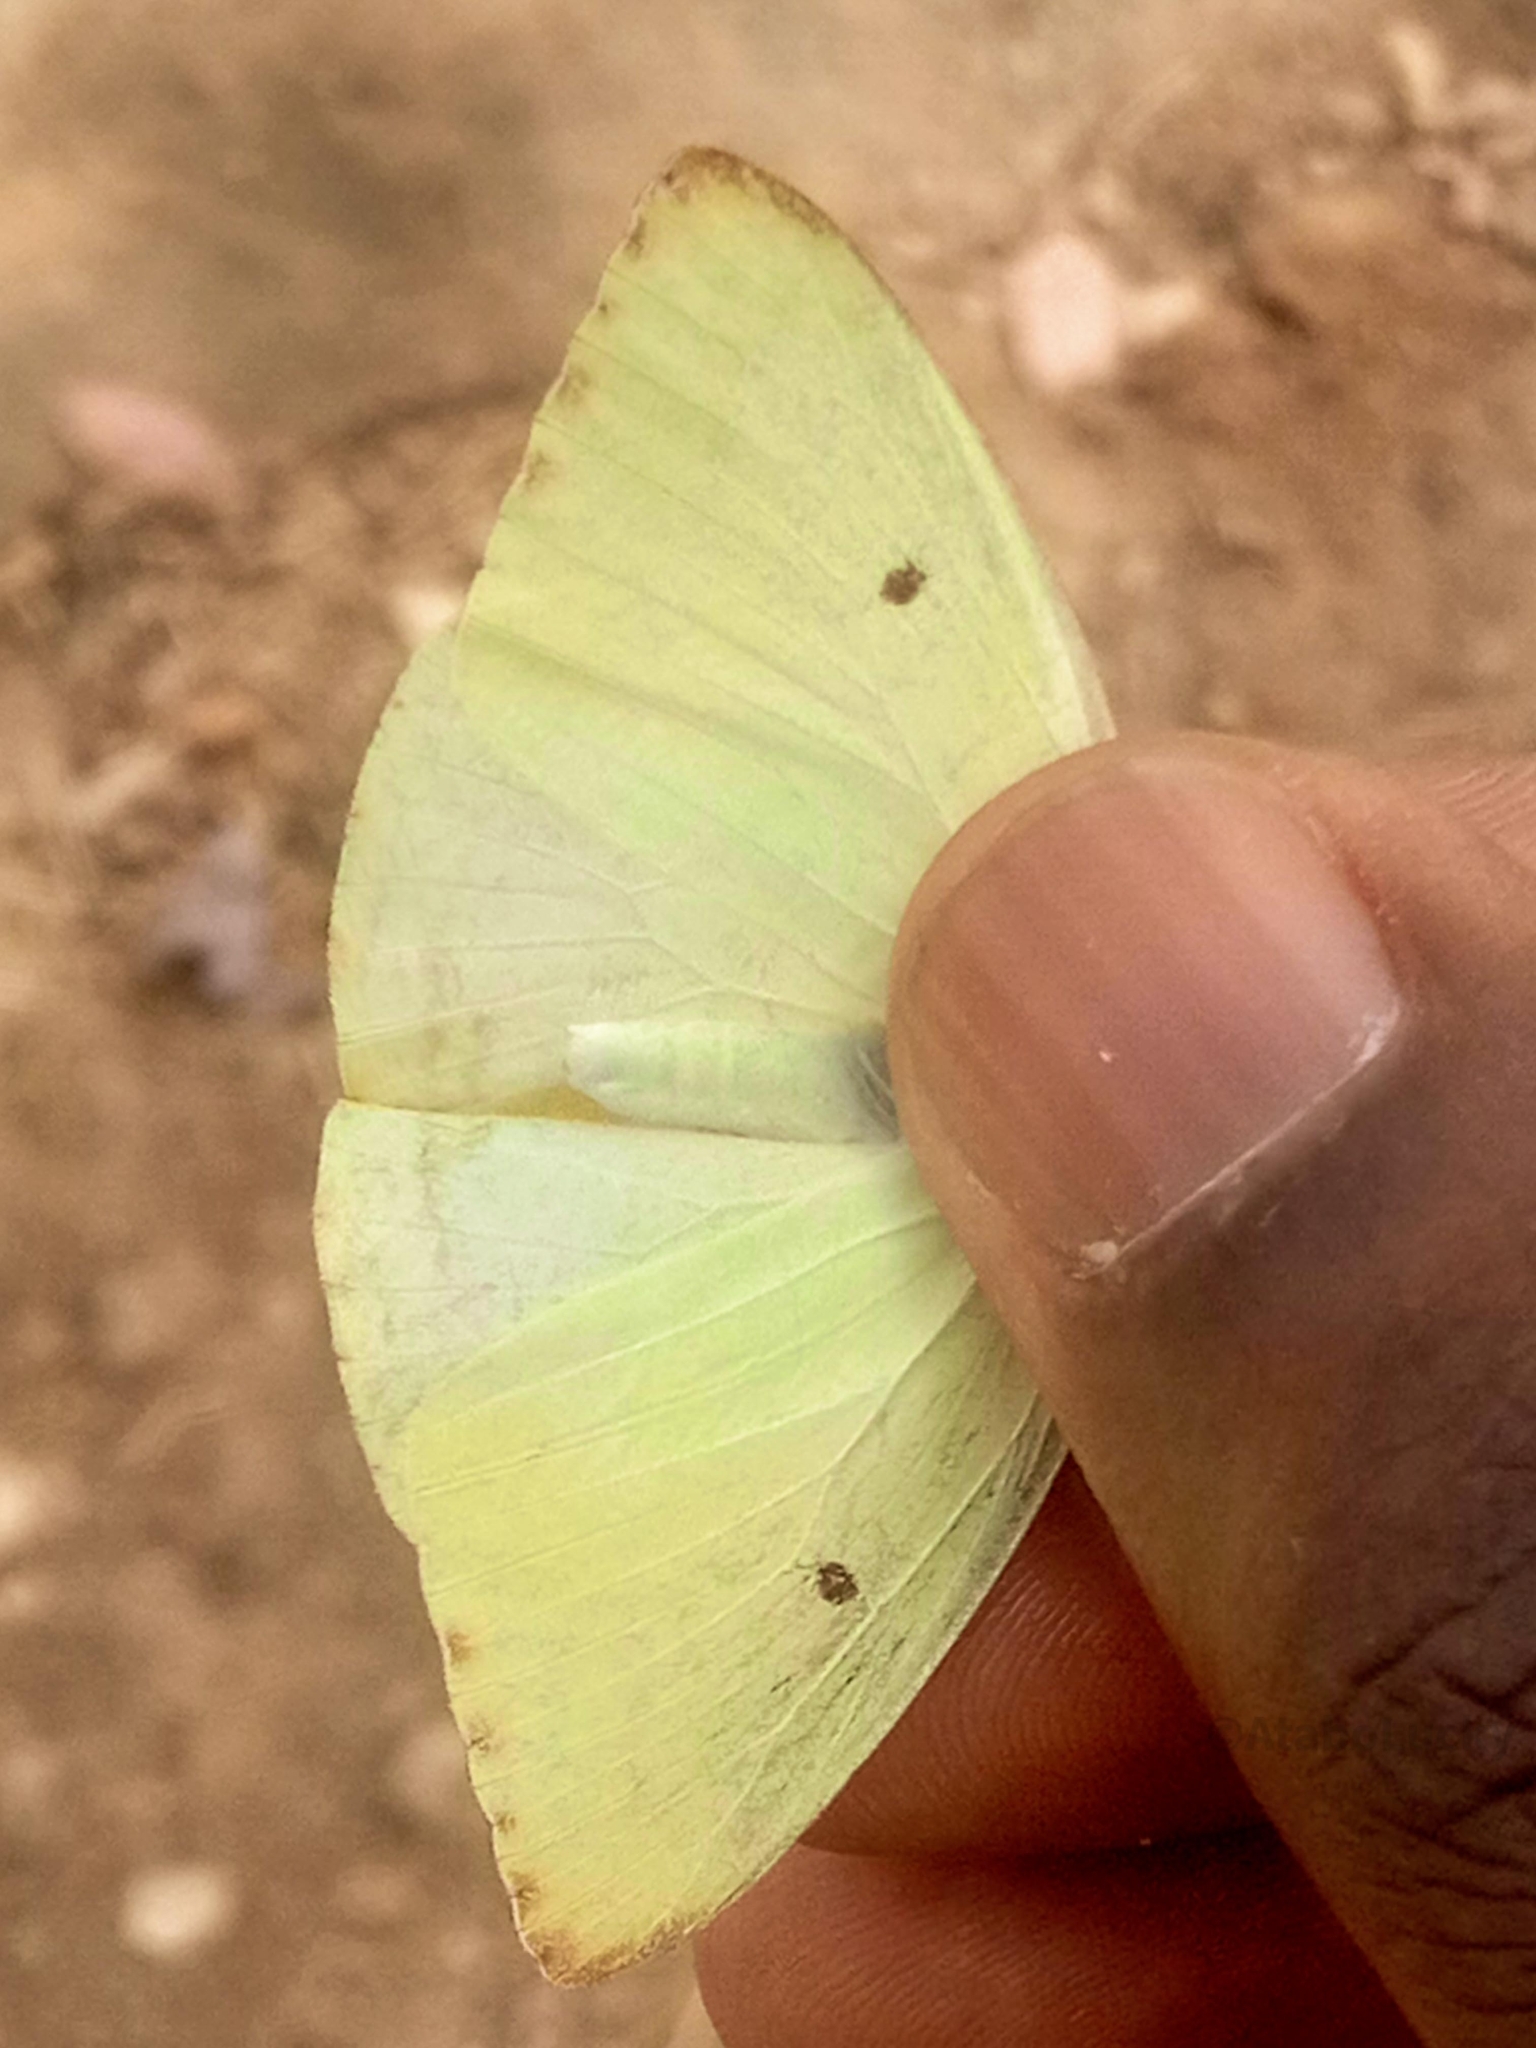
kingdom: Animalia
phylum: Arthropoda
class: Insecta
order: Lepidoptera
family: Pieridae
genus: Catopsilia
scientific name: Catopsilia florella
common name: African migrant
